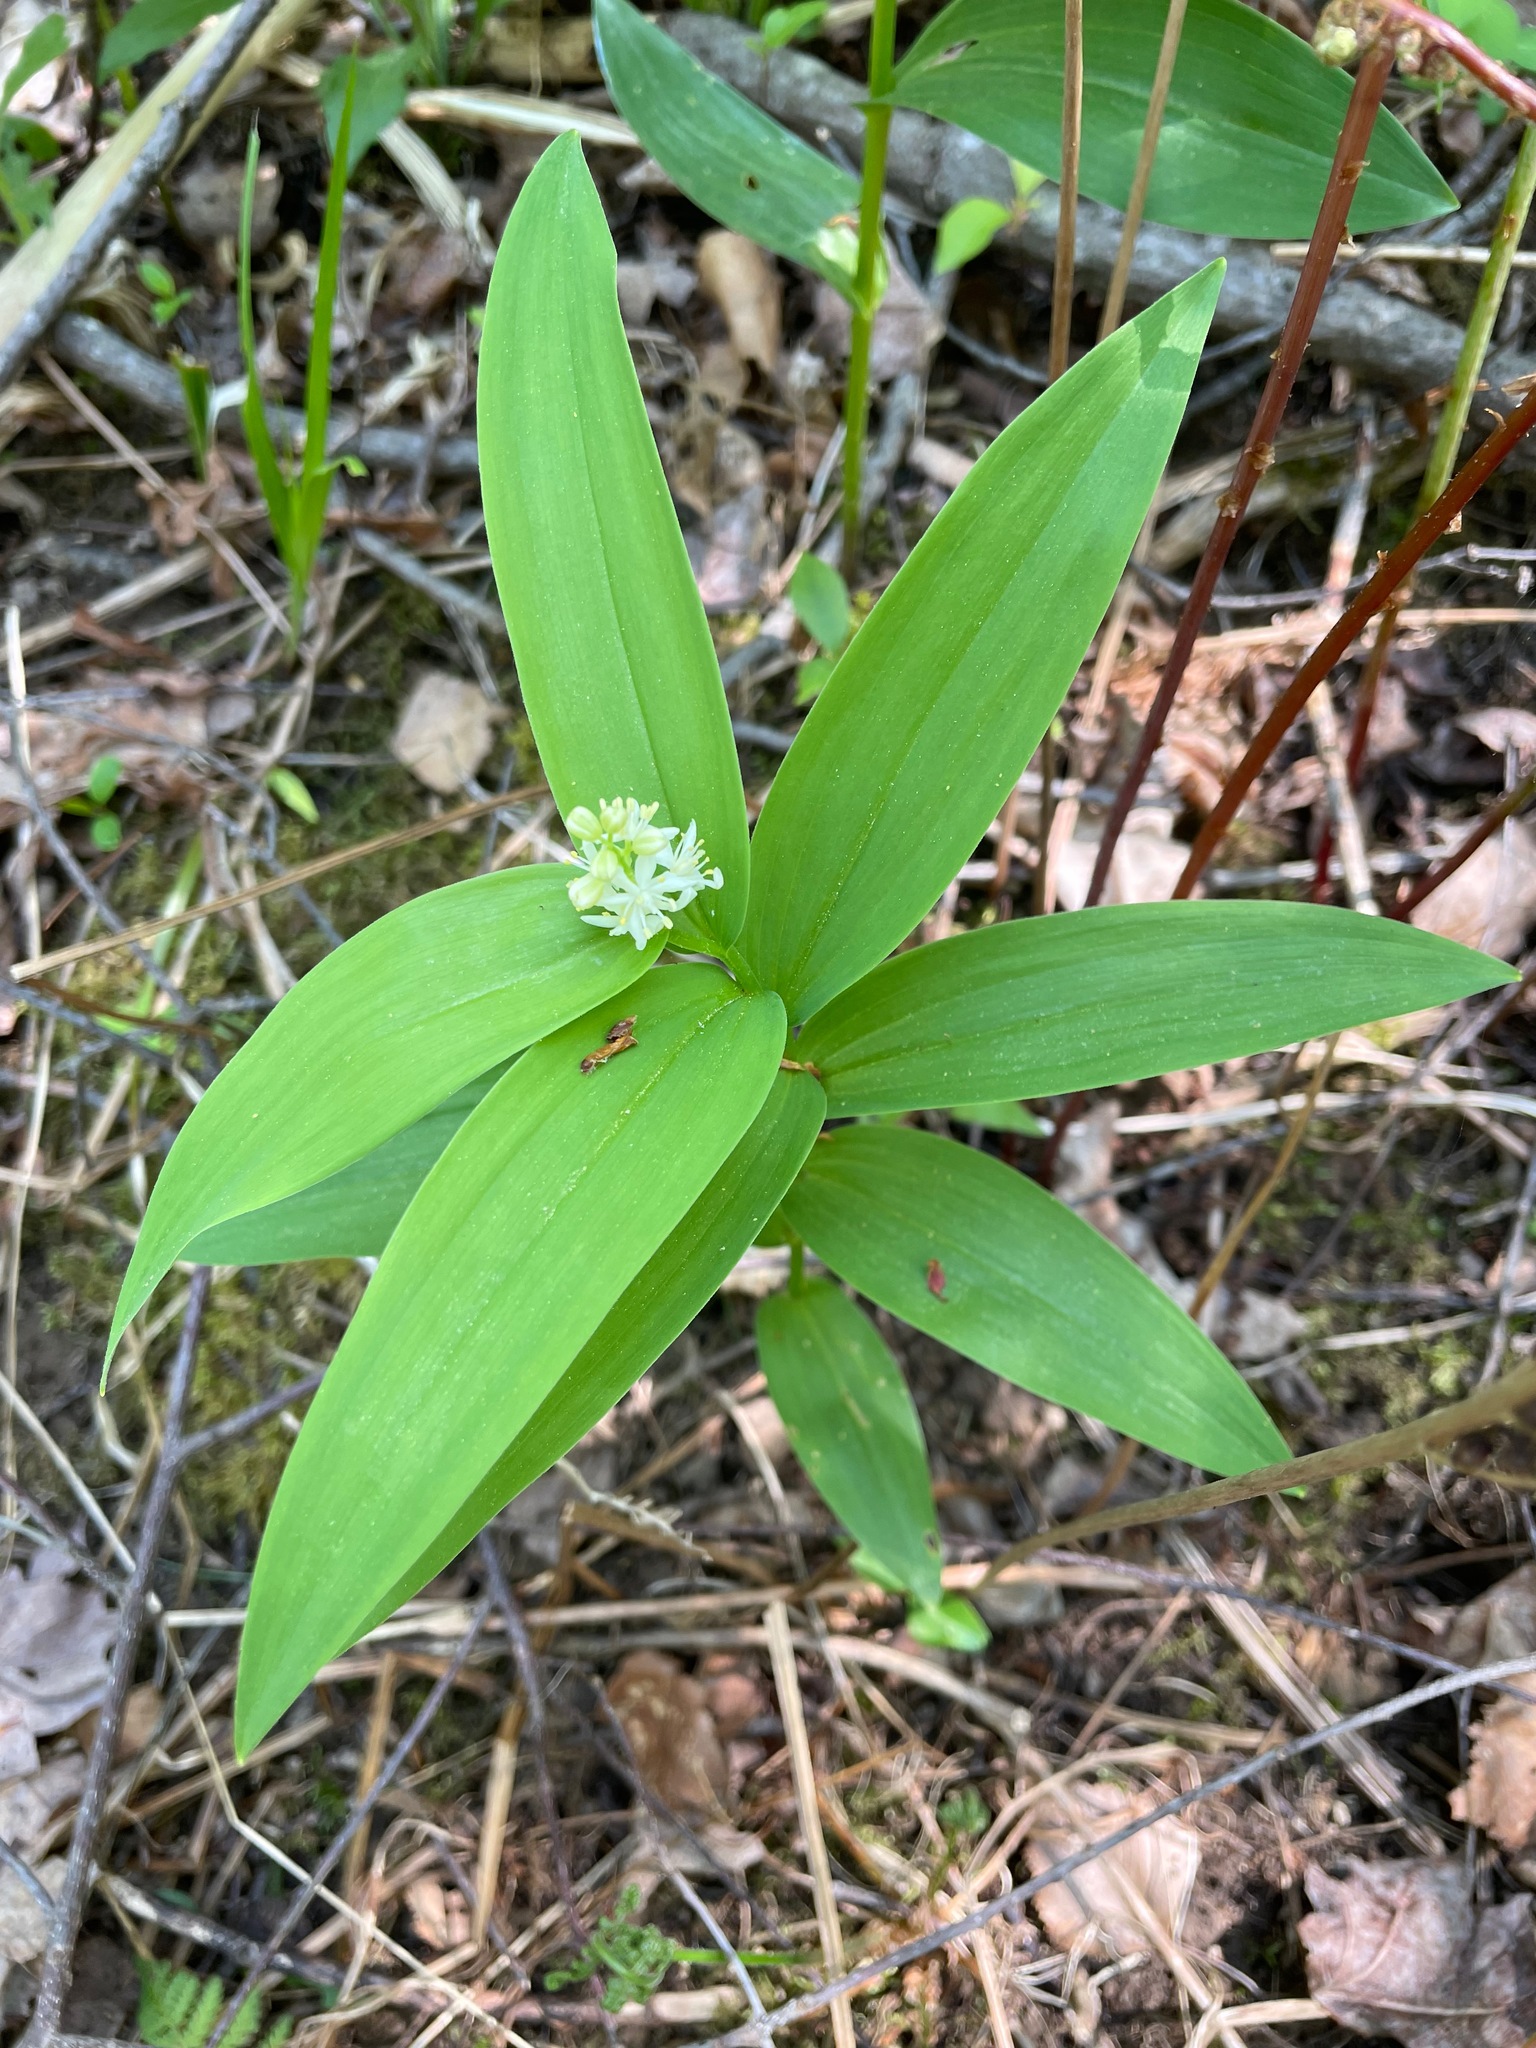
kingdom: Plantae
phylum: Tracheophyta
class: Liliopsida
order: Asparagales
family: Asparagaceae
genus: Maianthemum
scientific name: Maianthemum stellatum
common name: Little false solomon's seal
